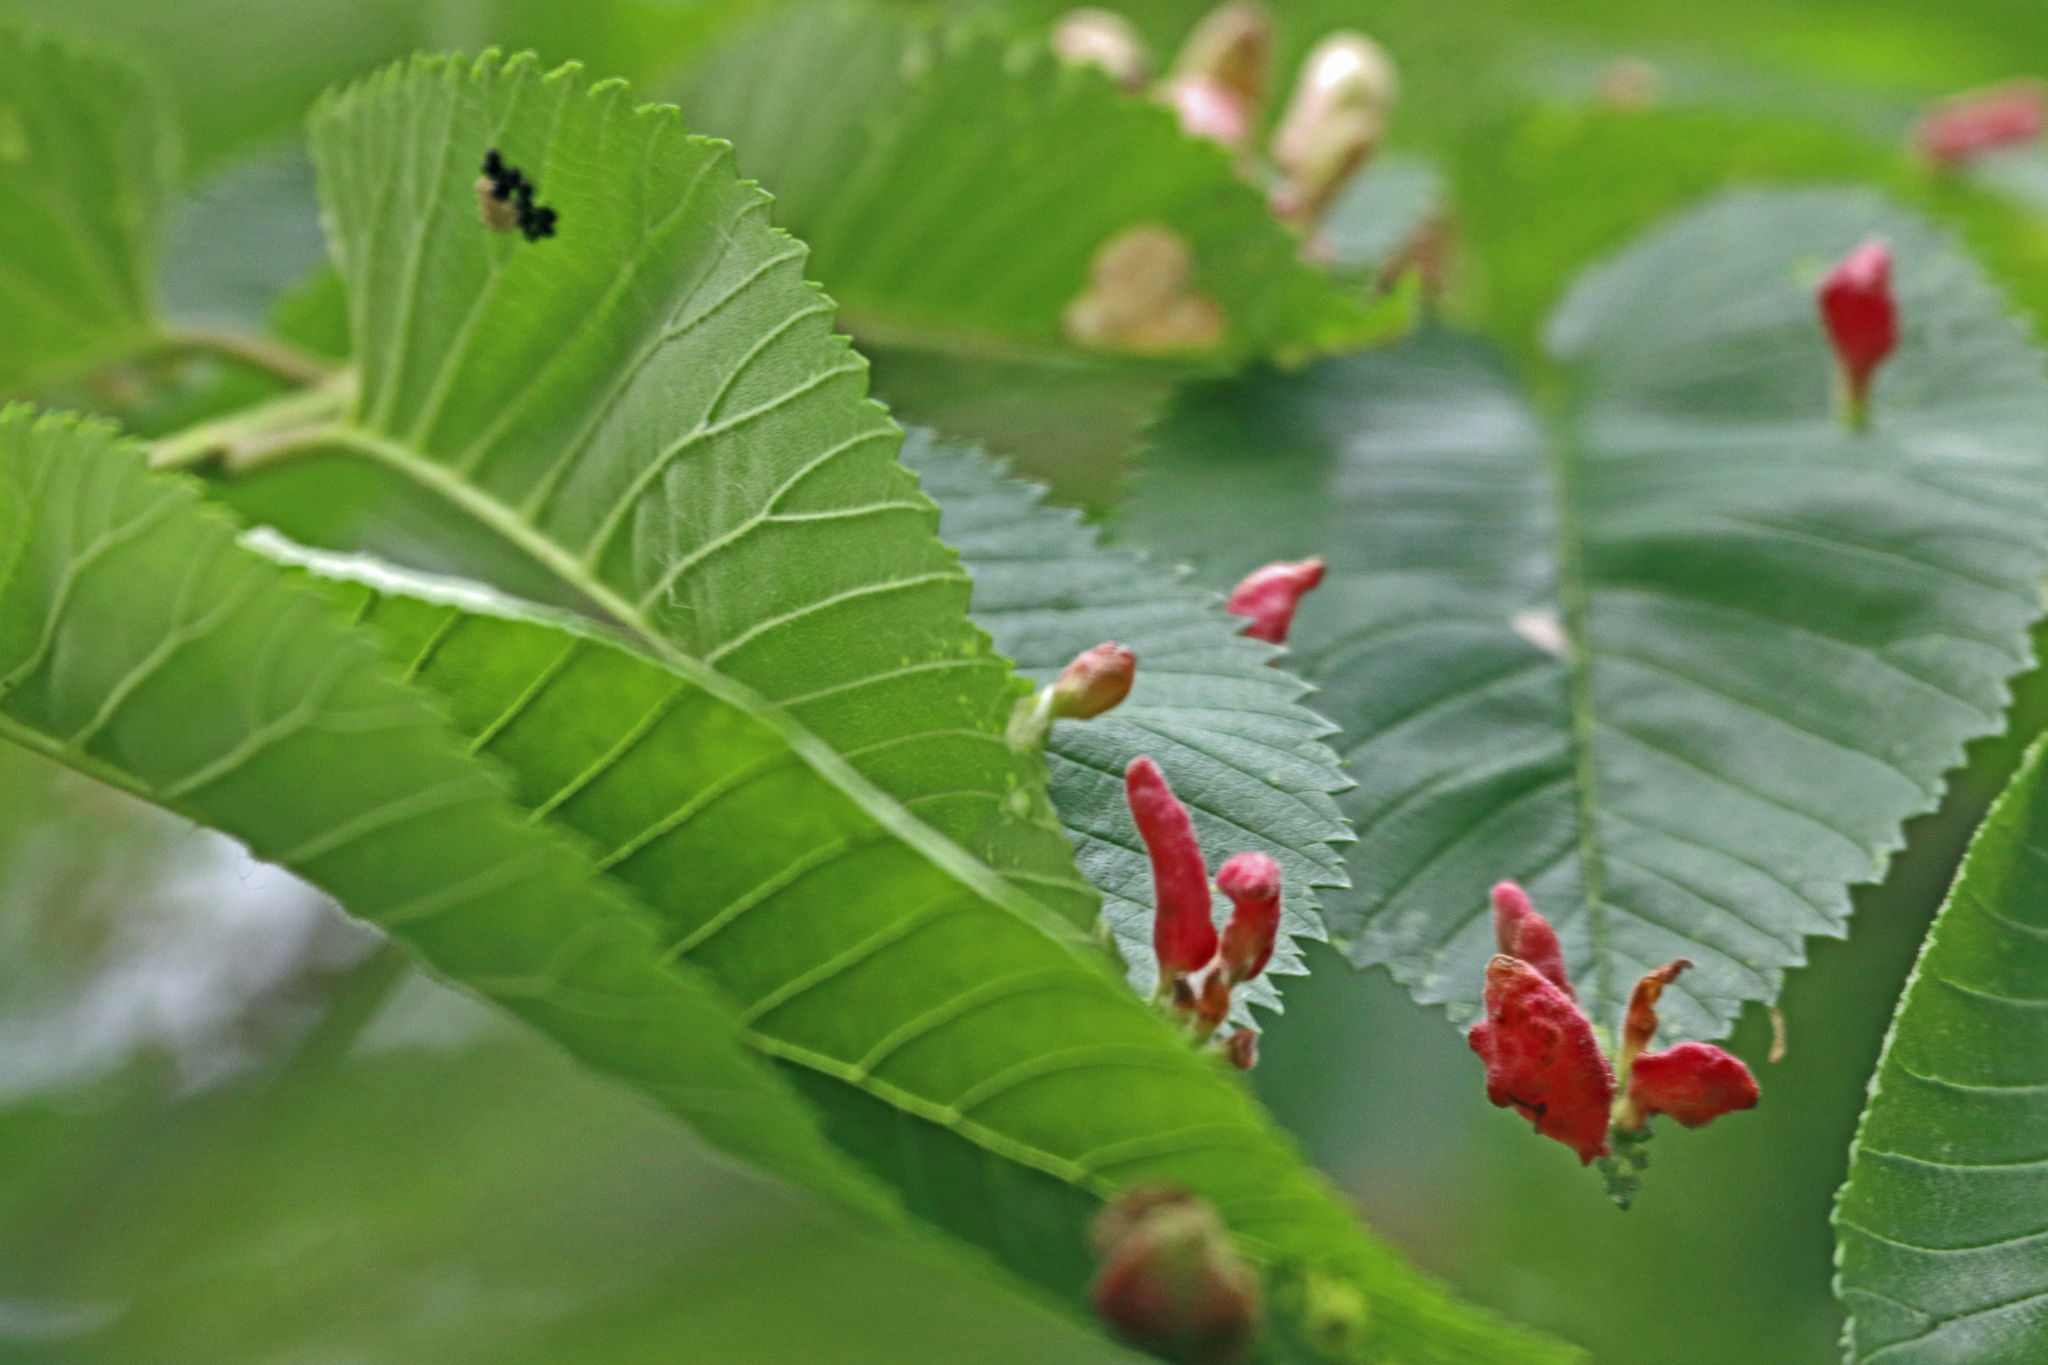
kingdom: Animalia
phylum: Arthropoda
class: Insecta
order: Hemiptera
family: Aphididae
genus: Tetraneura
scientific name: Tetraneura nigriabdominalis
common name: Aphid
